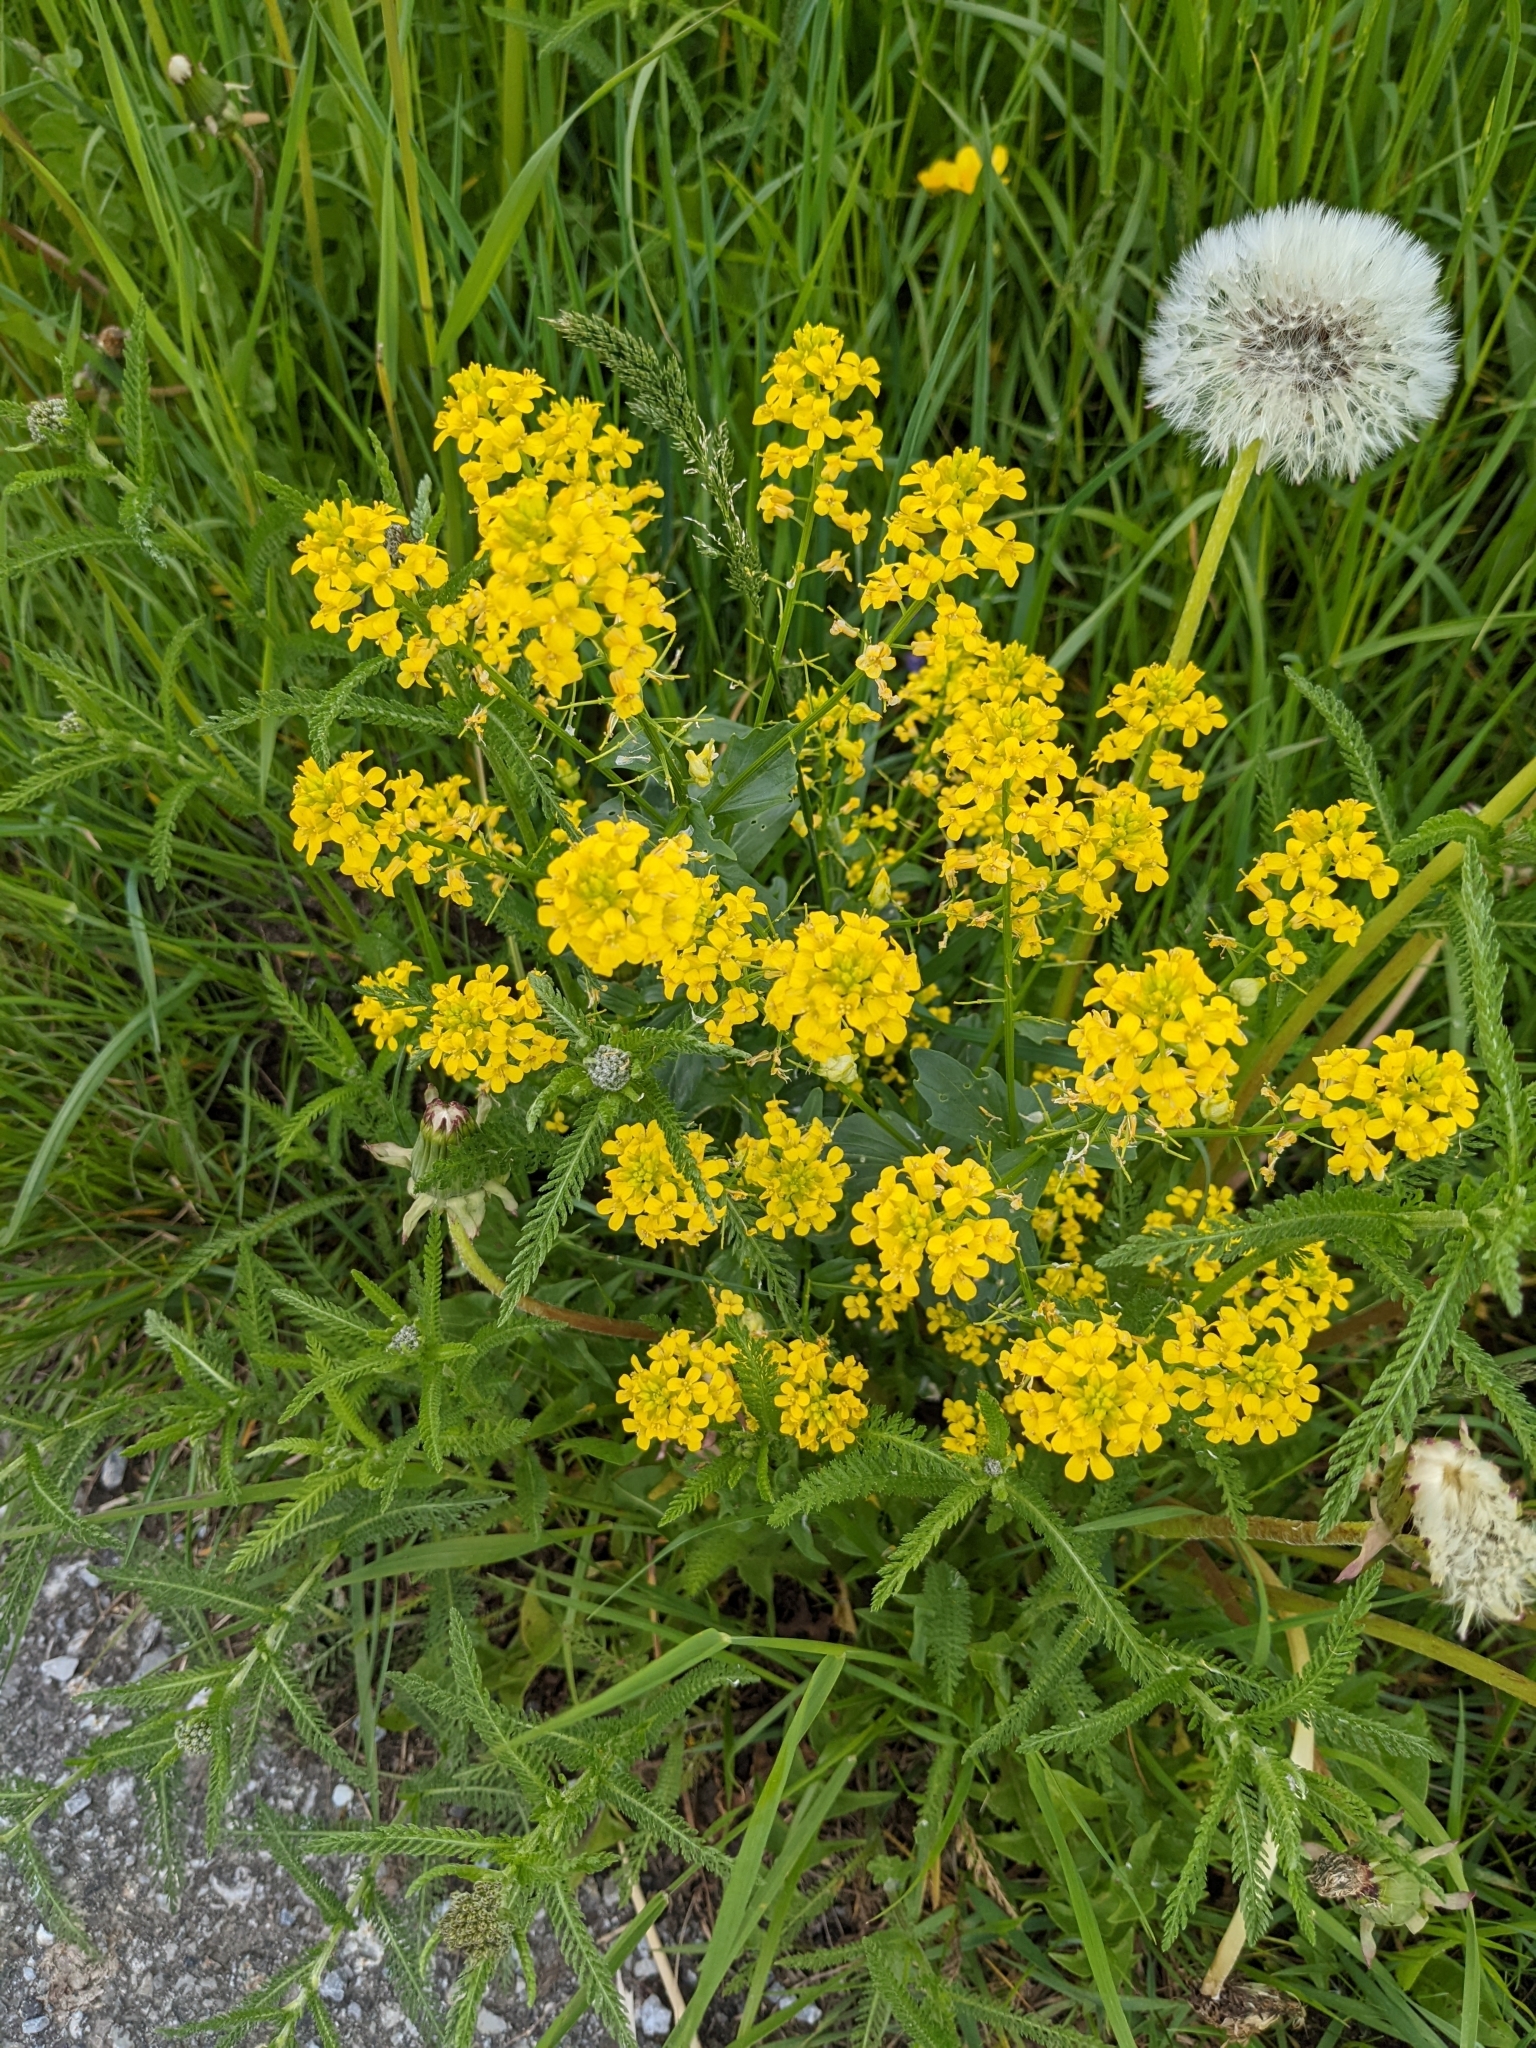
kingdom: Plantae
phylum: Tracheophyta
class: Magnoliopsida
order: Brassicales
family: Brassicaceae
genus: Barbarea
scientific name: Barbarea vulgaris
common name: Cressy-greens
